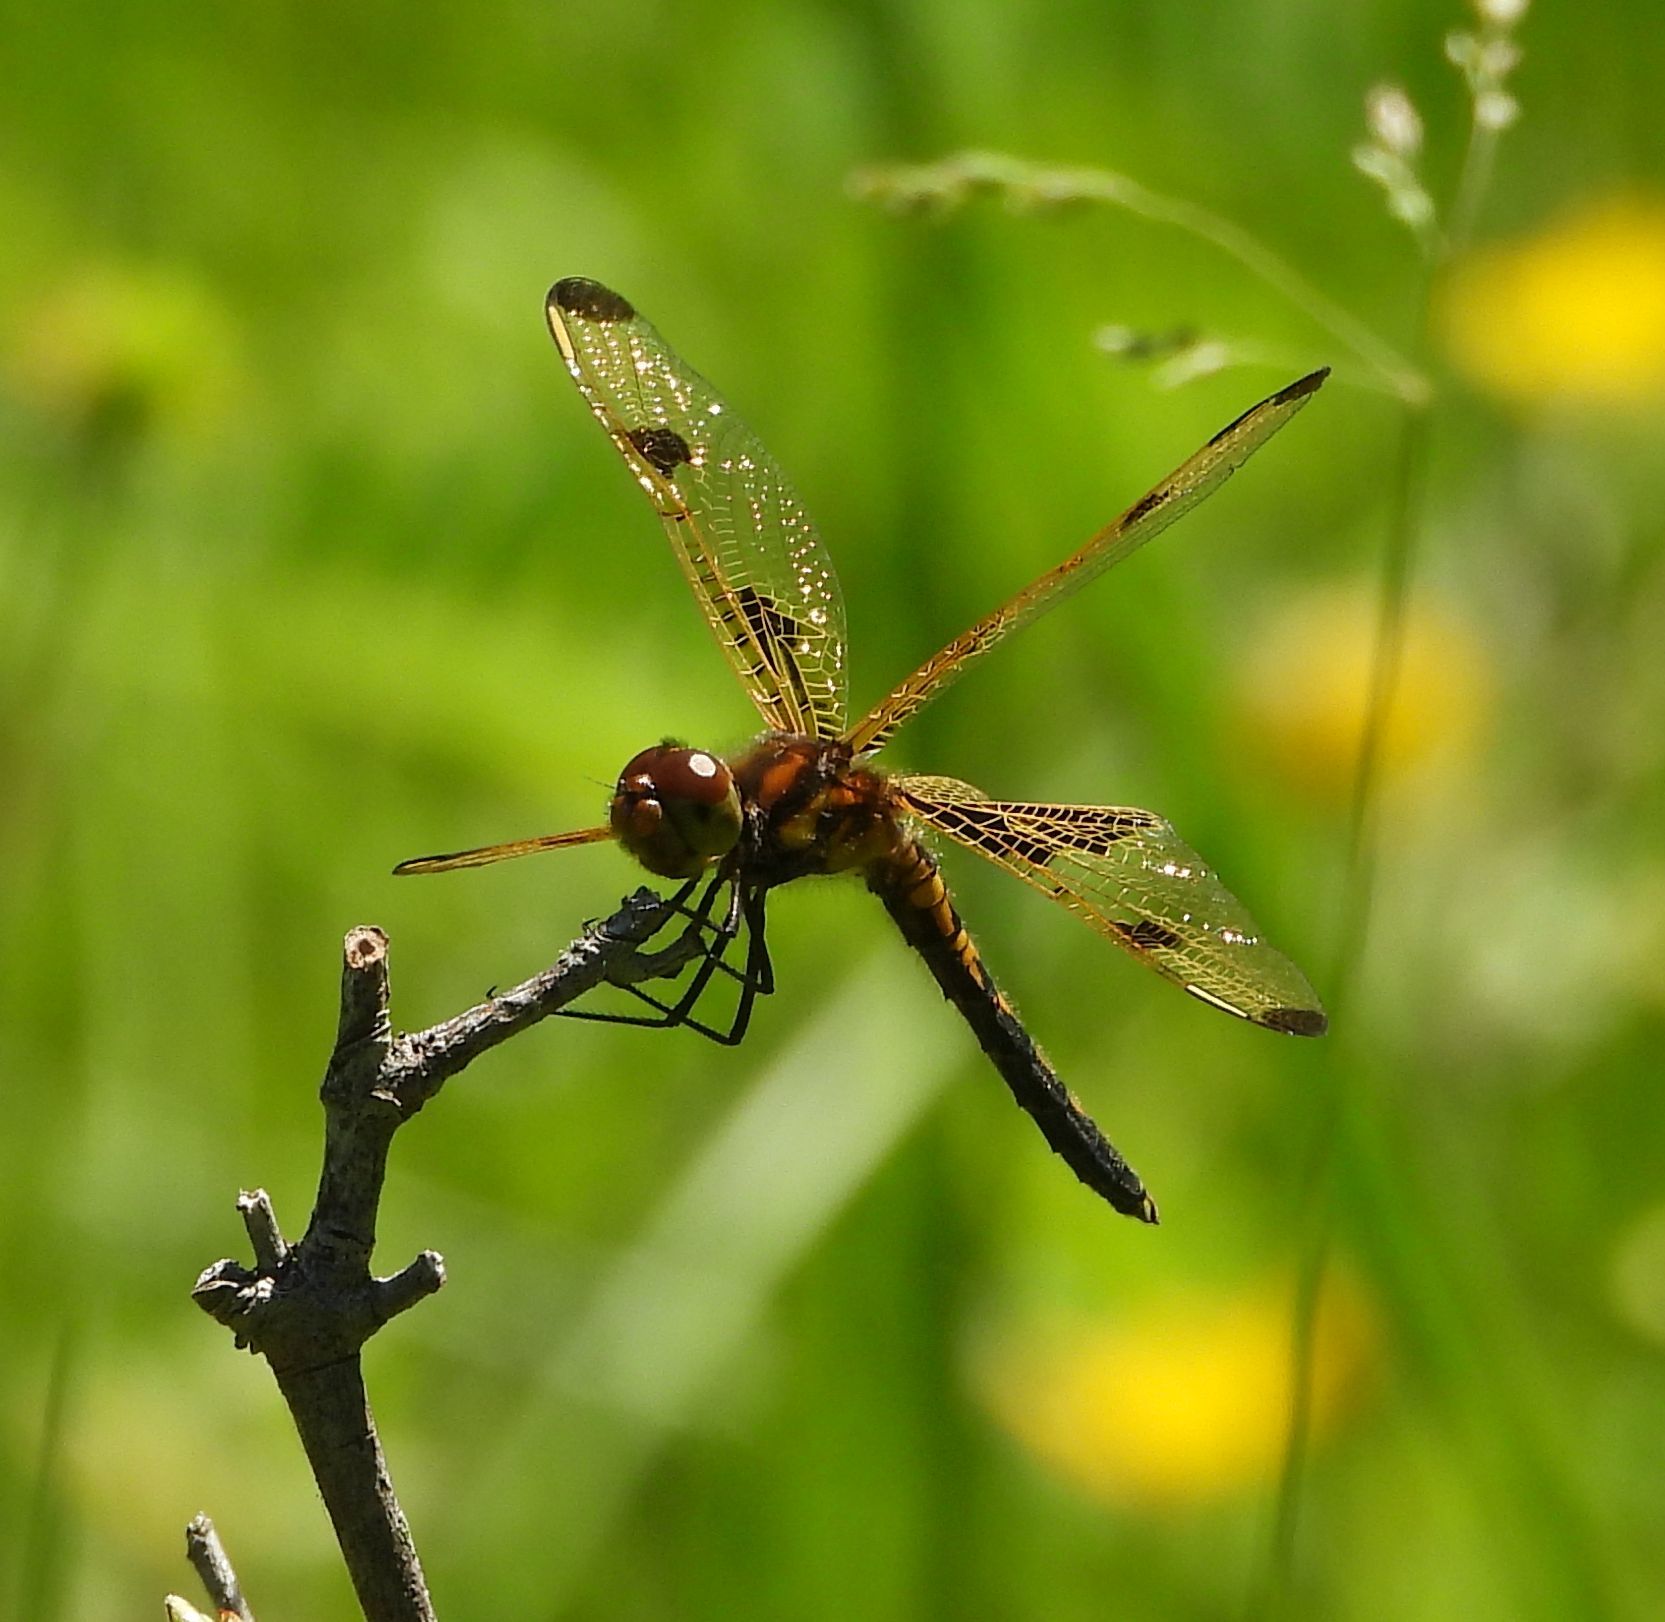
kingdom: Animalia
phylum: Arthropoda
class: Insecta
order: Odonata
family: Libellulidae
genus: Celithemis
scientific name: Celithemis elisa
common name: Calico pennant
